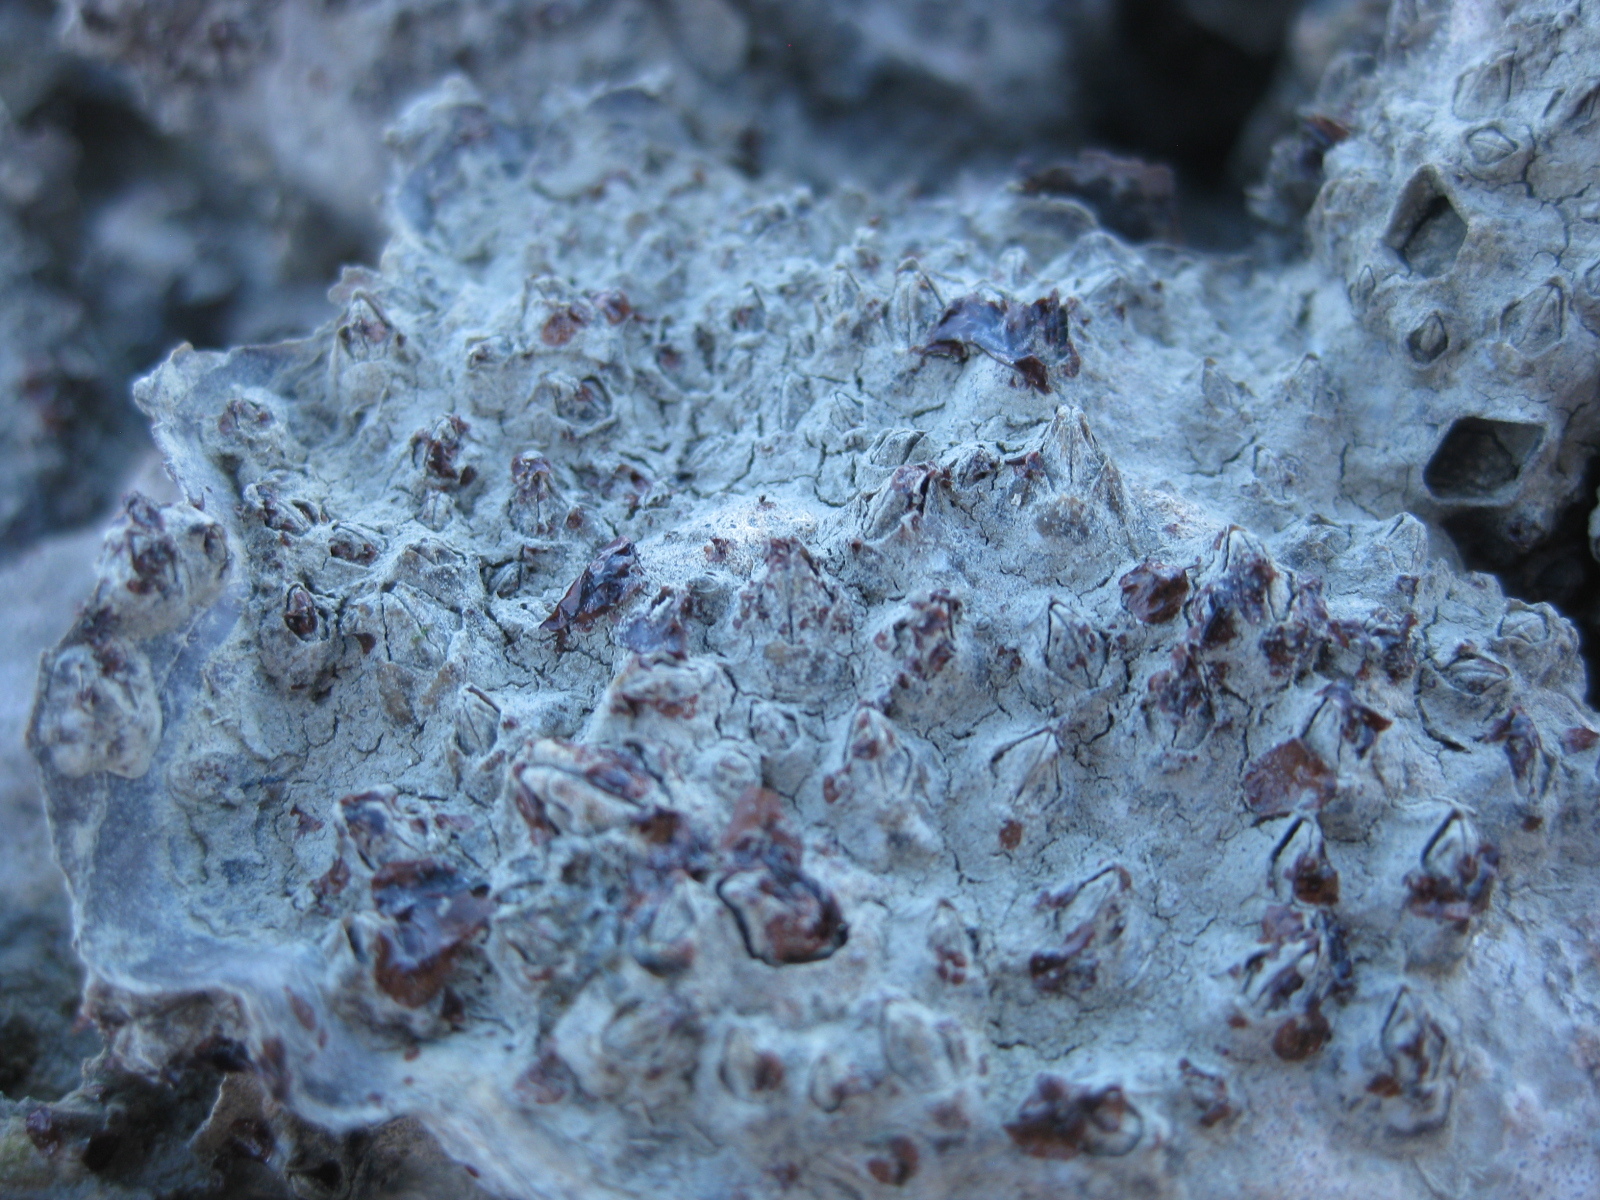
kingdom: Animalia
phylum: Arthropoda
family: Elminiidae
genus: Austrominius
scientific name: Austrominius modestus
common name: Australasian barnacle
